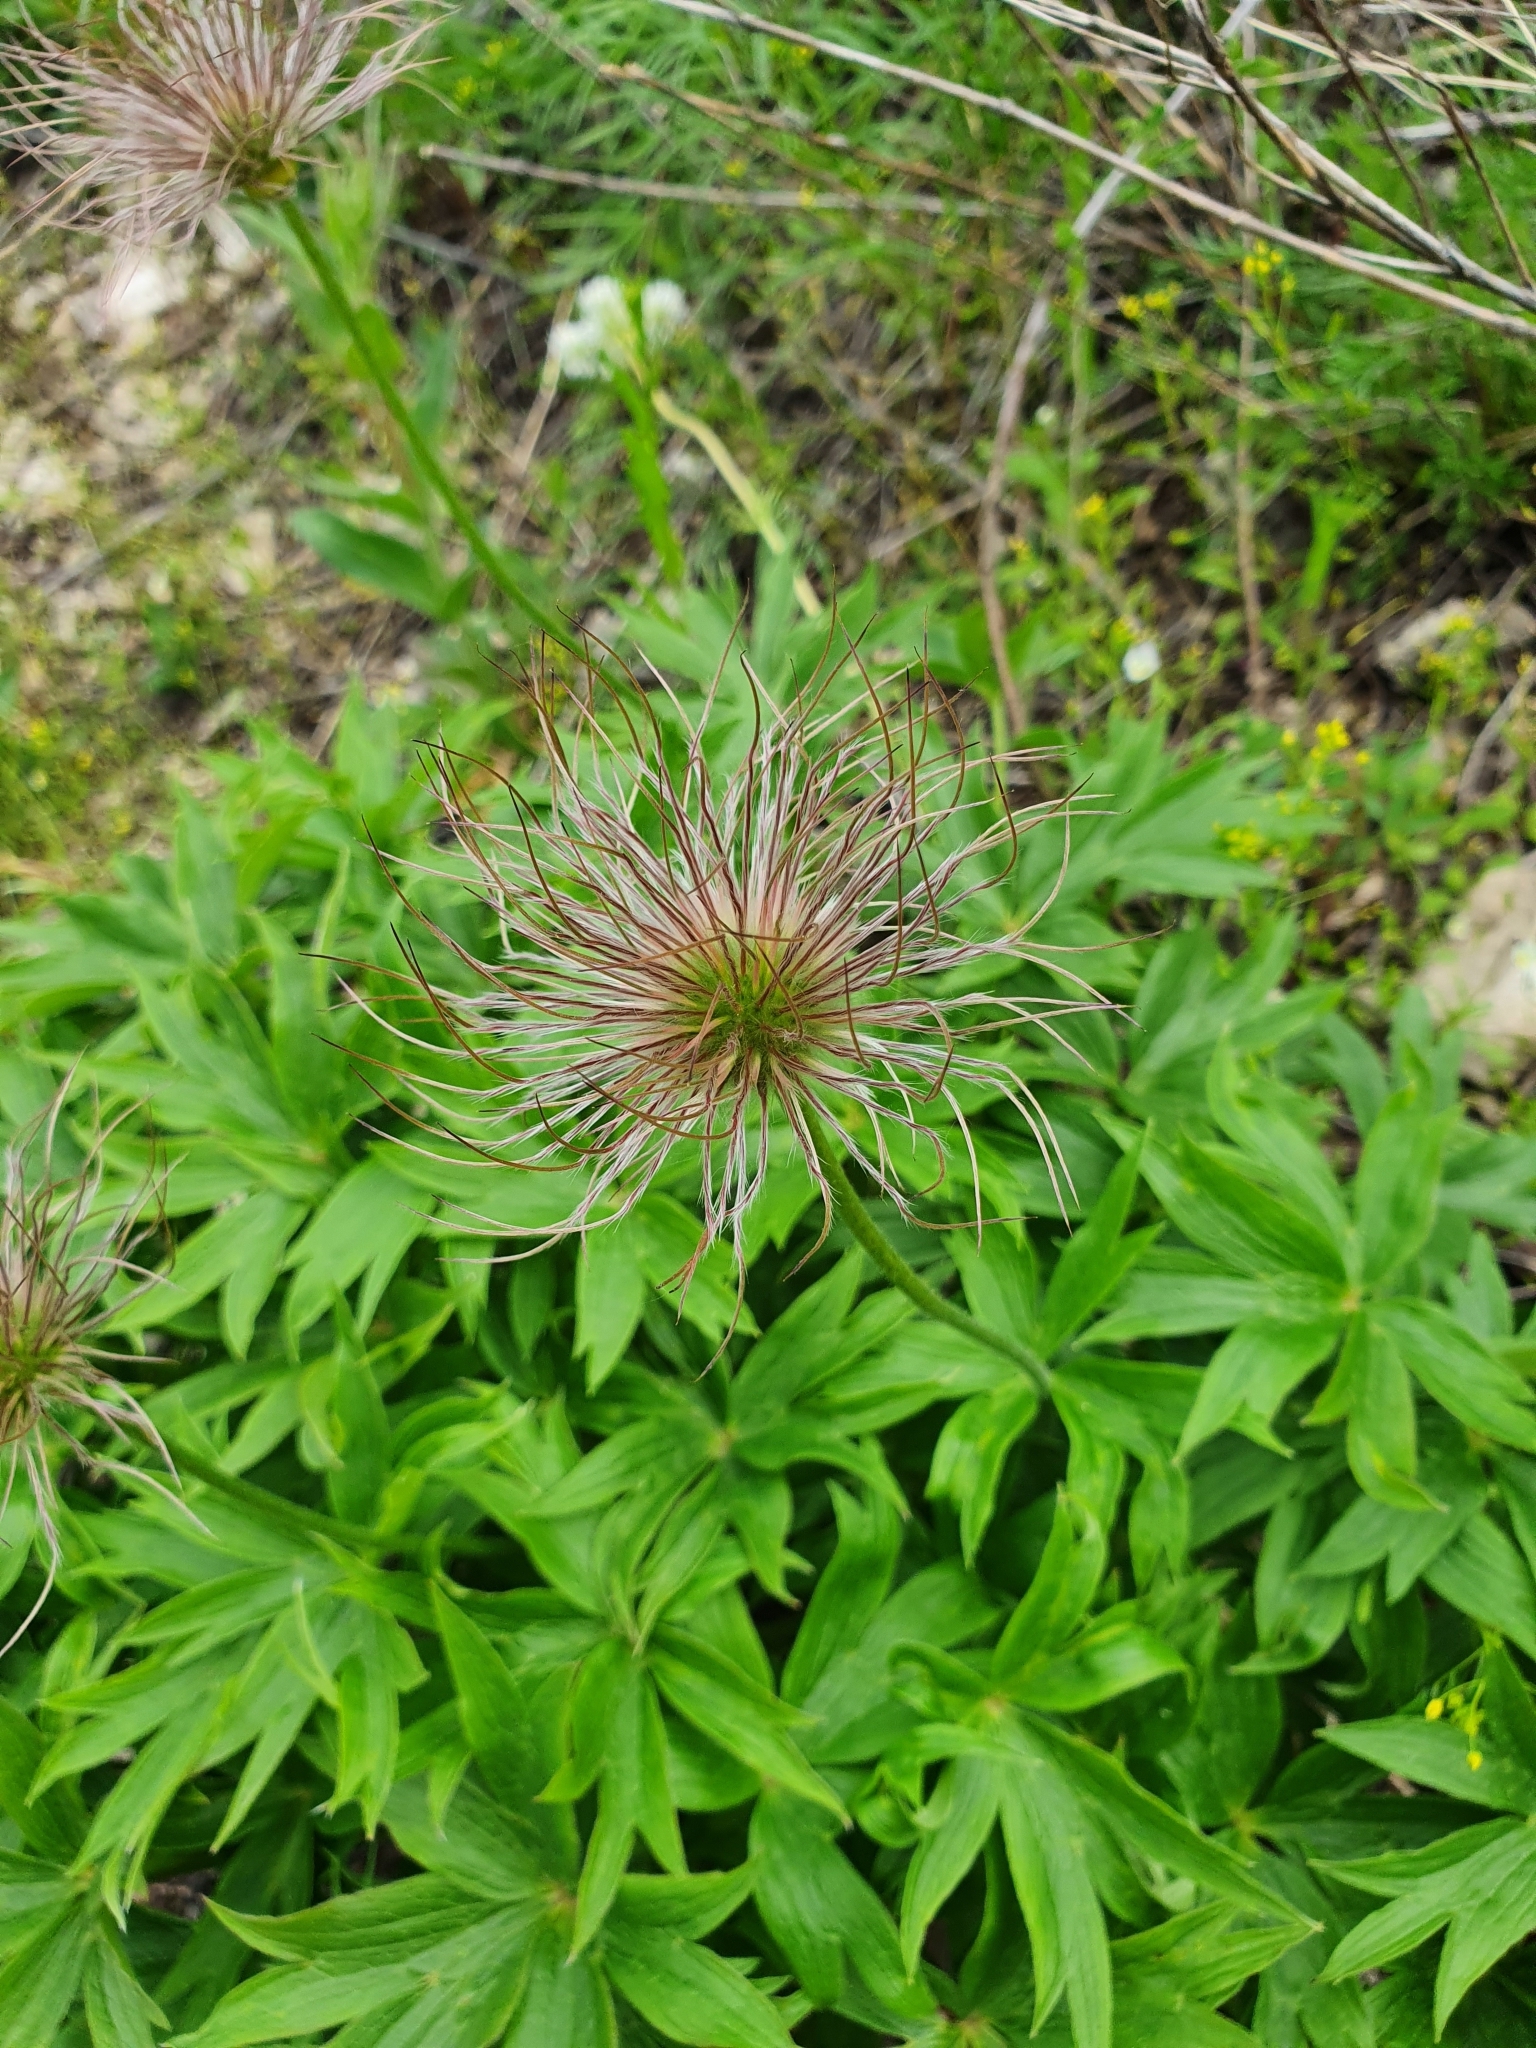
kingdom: Plantae
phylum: Tracheophyta
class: Magnoliopsida
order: Ranunculales
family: Ranunculaceae
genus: Pulsatilla
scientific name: Pulsatilla patens
